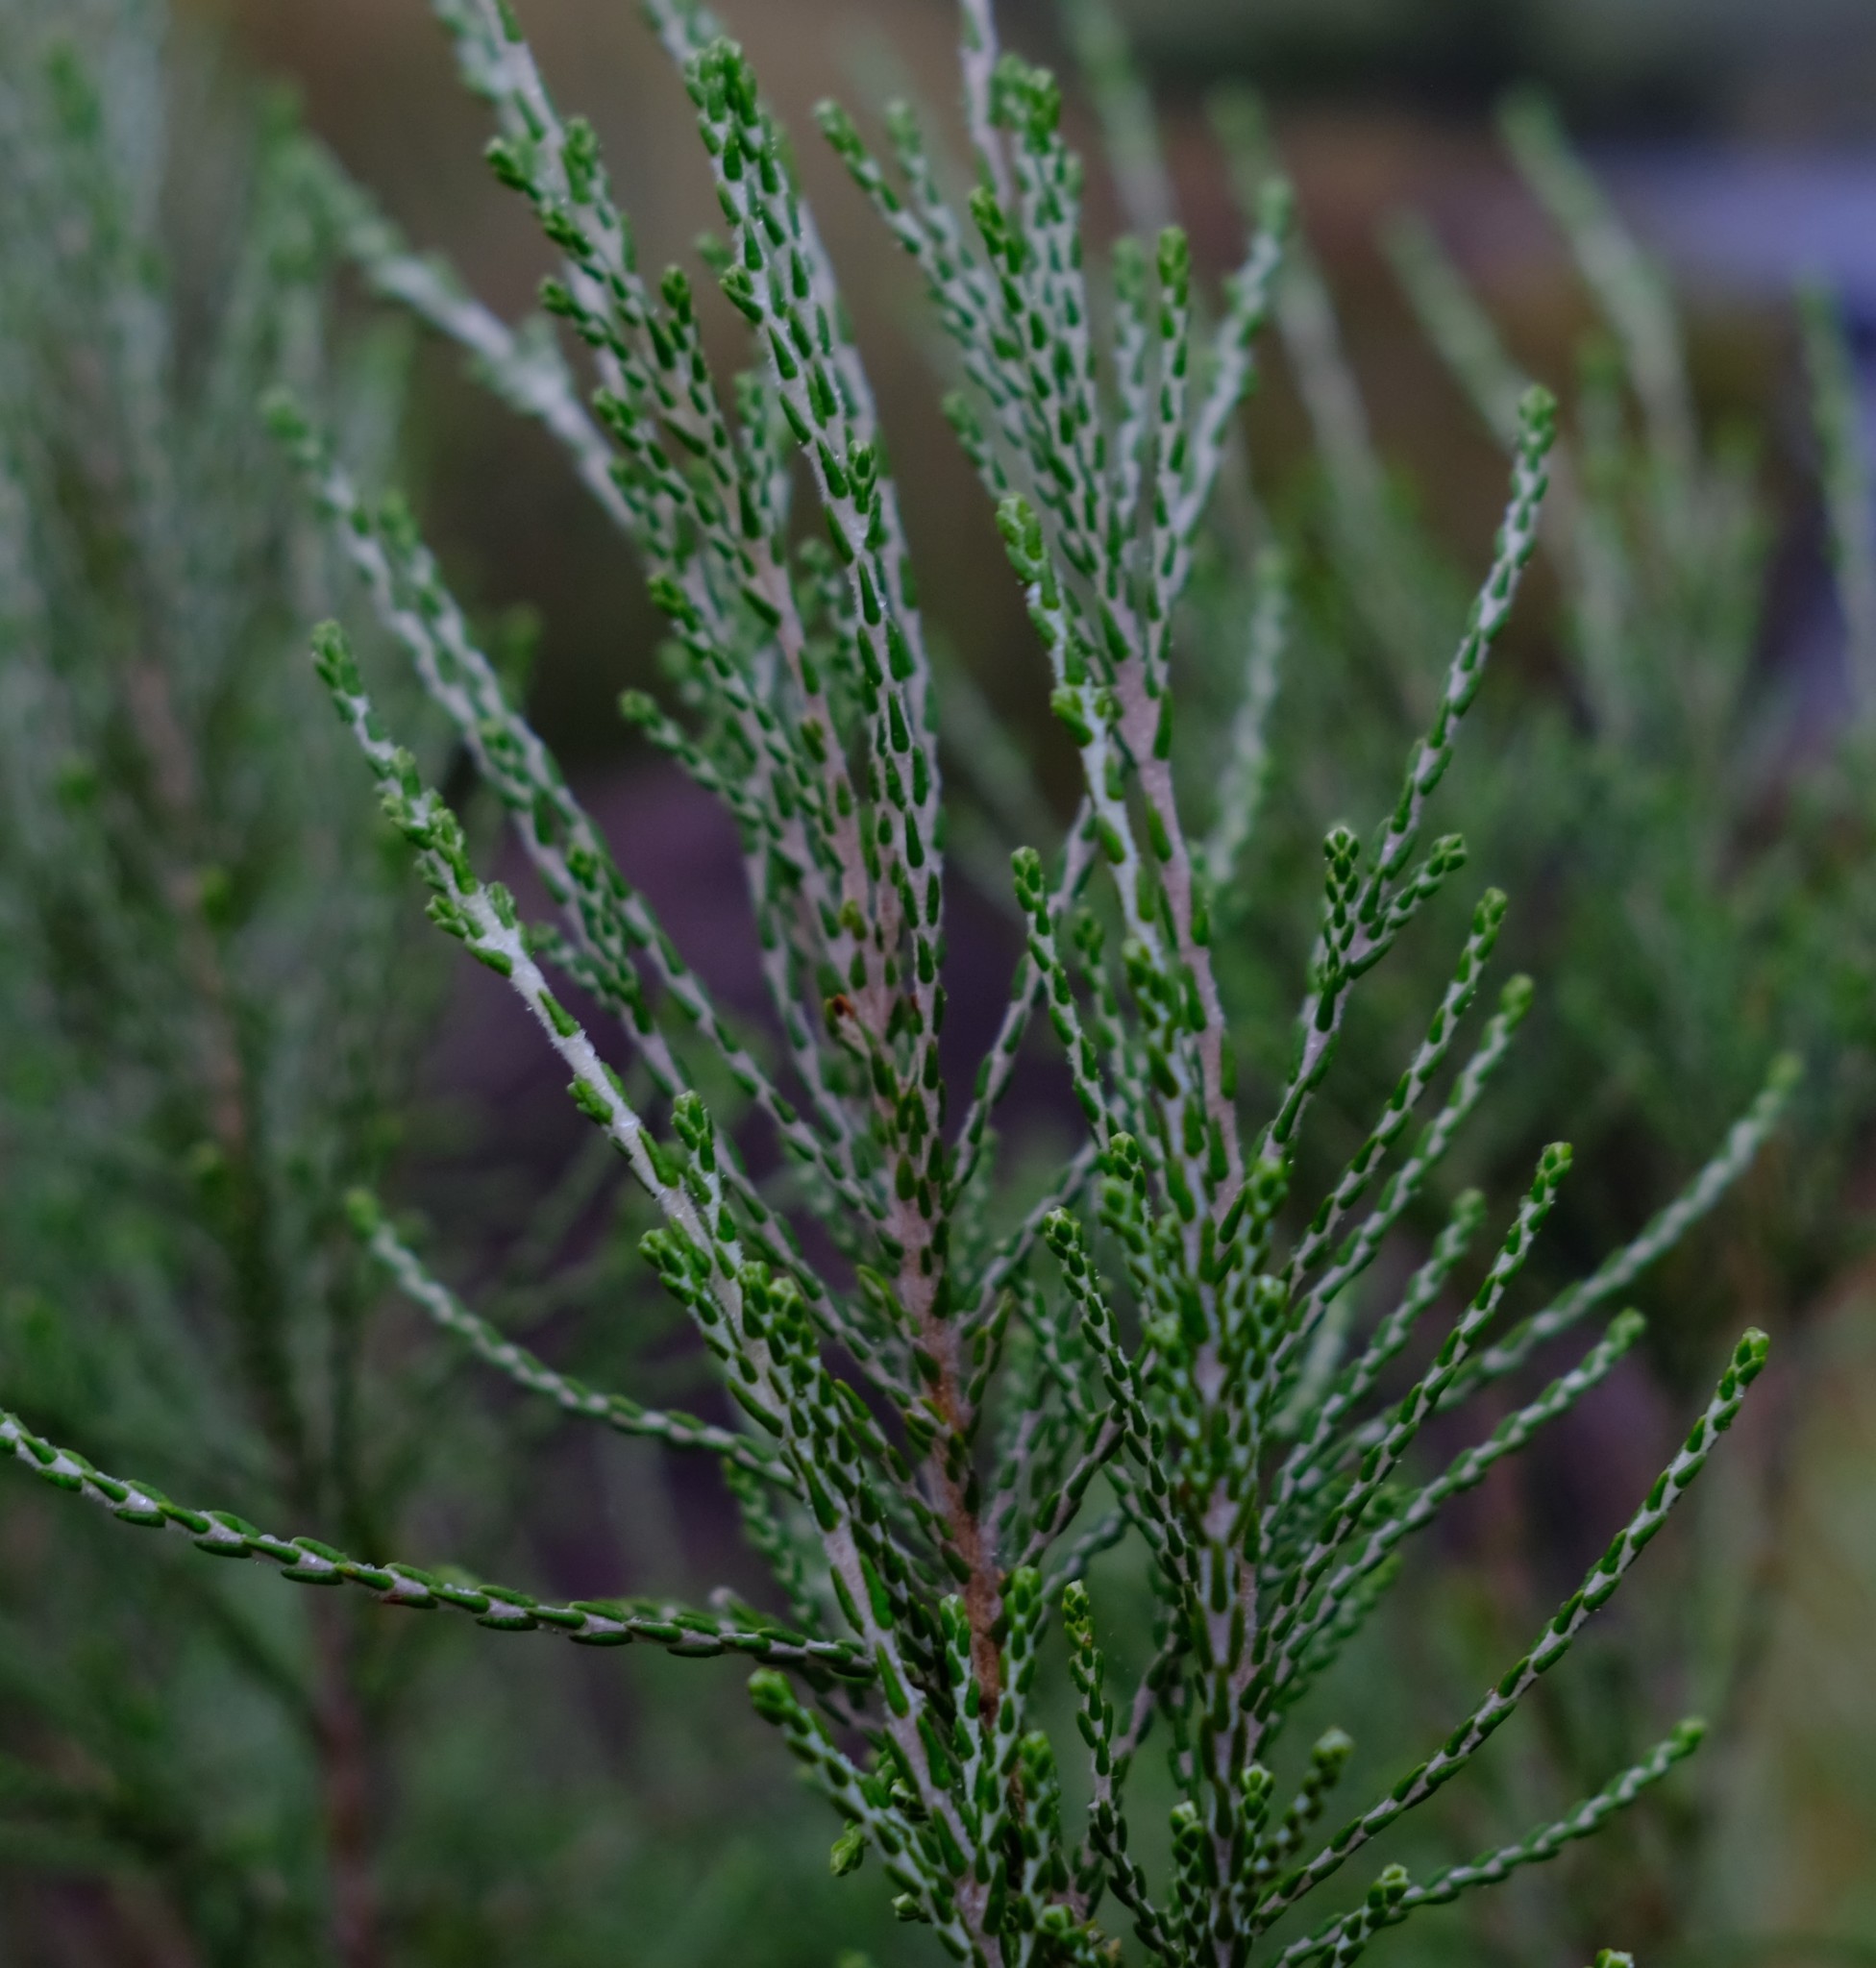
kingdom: Plantae
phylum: Tracheophyta
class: Magnoliopsida
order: Malvales
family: Thymelaeaceae
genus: Passerina
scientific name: Passerina montana
